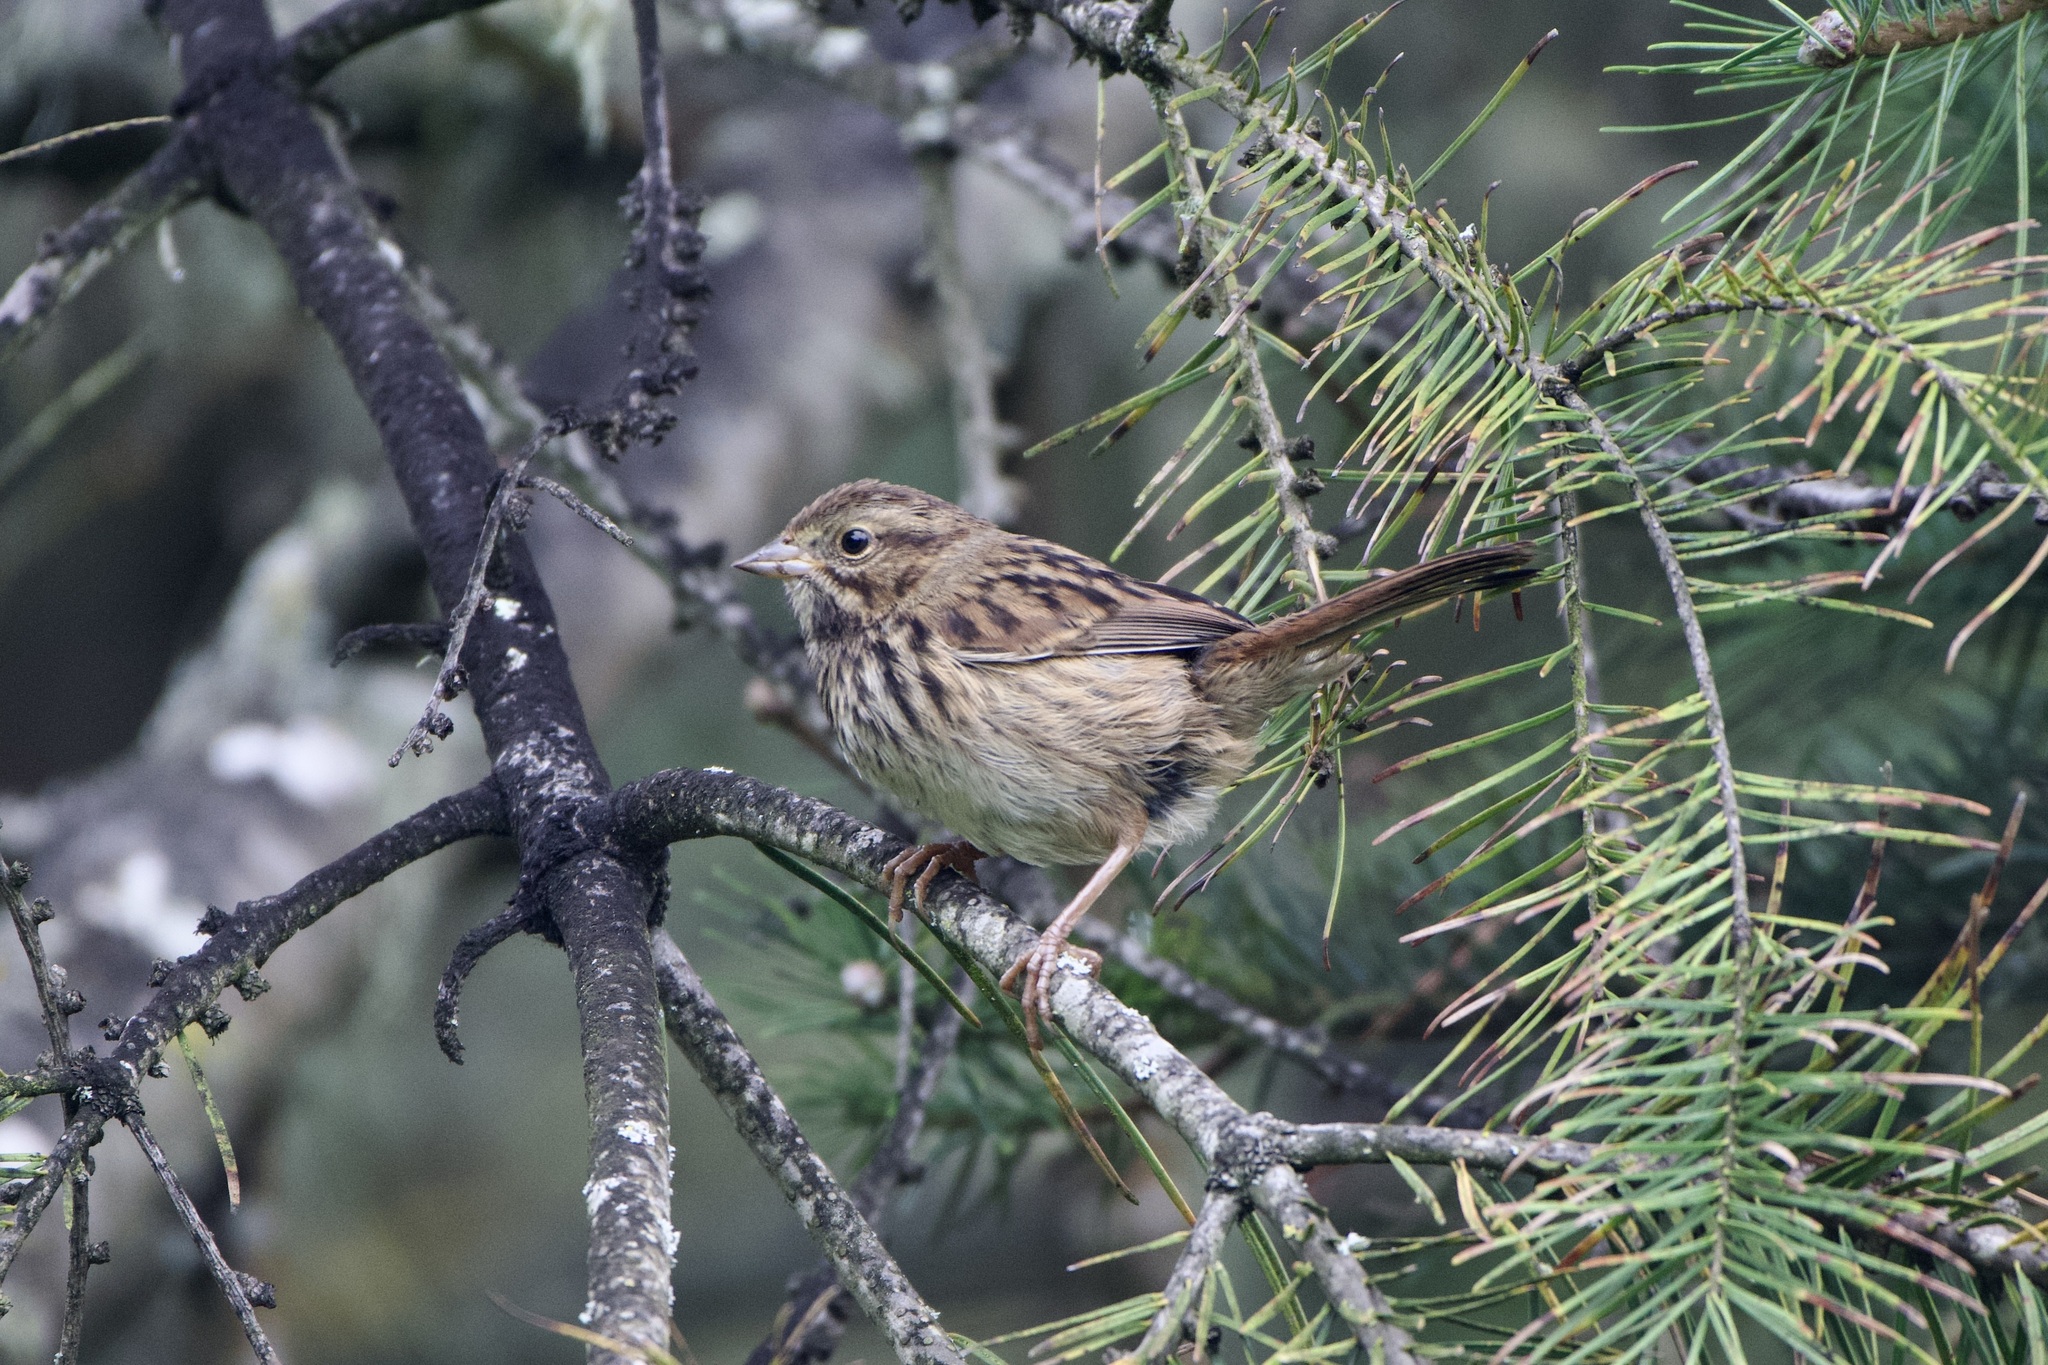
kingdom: Animalia
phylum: Chordata
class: Aves
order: Passeriformes
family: Passerellidae
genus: Melospiza
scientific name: Melospiza melodia
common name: Song sparrow
